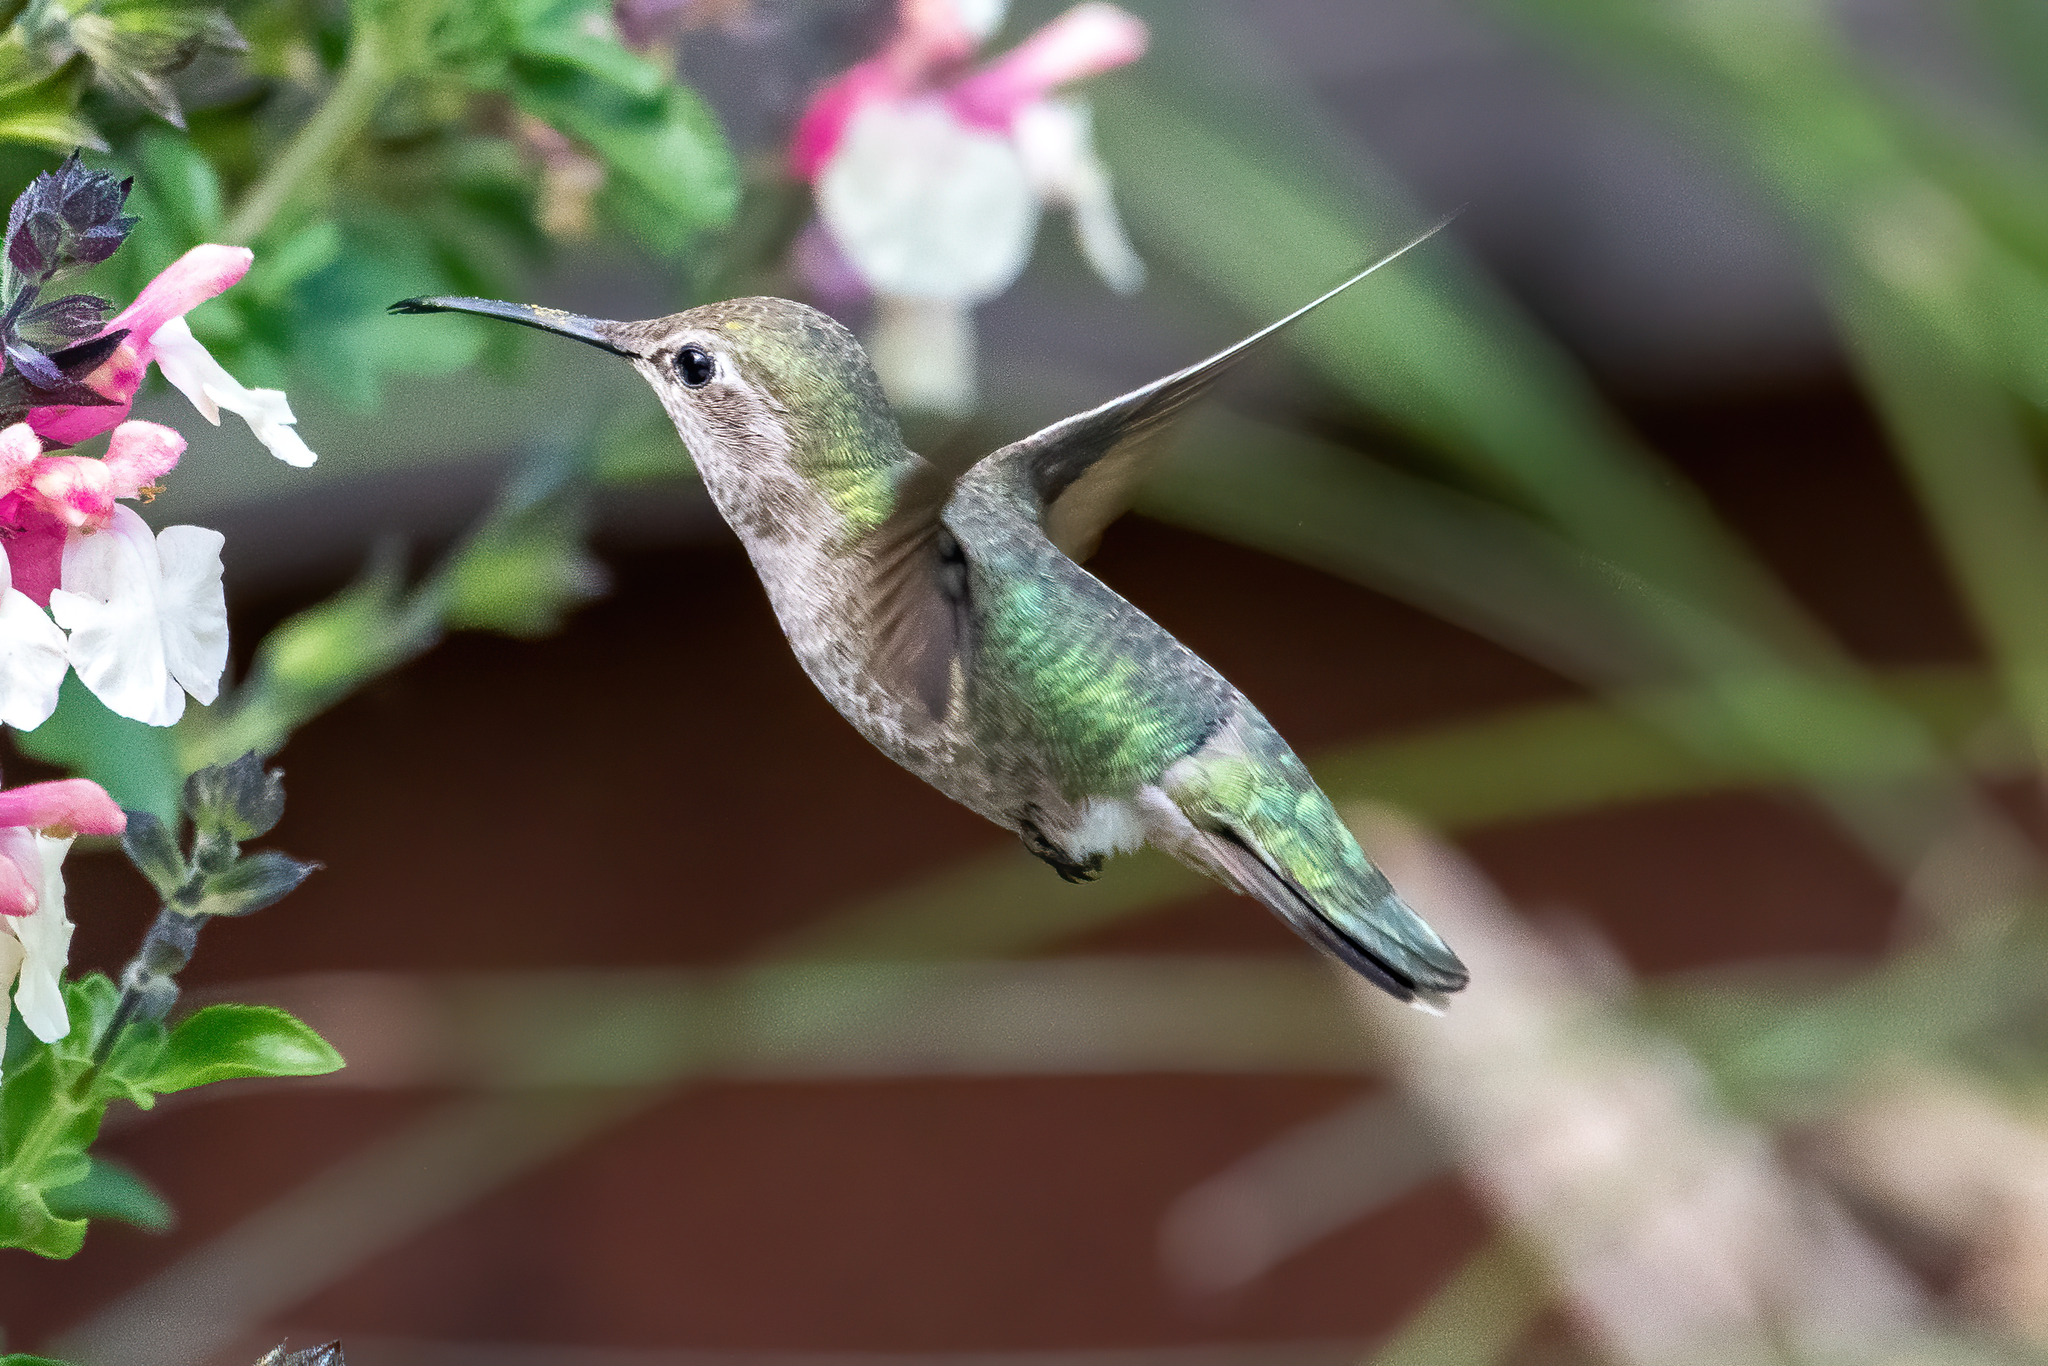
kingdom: Animalia
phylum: Chordata
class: Aves
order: Apodiformes
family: Trochilidae
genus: Calypte
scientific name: Calypte anna
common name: Anna's hummingbird
